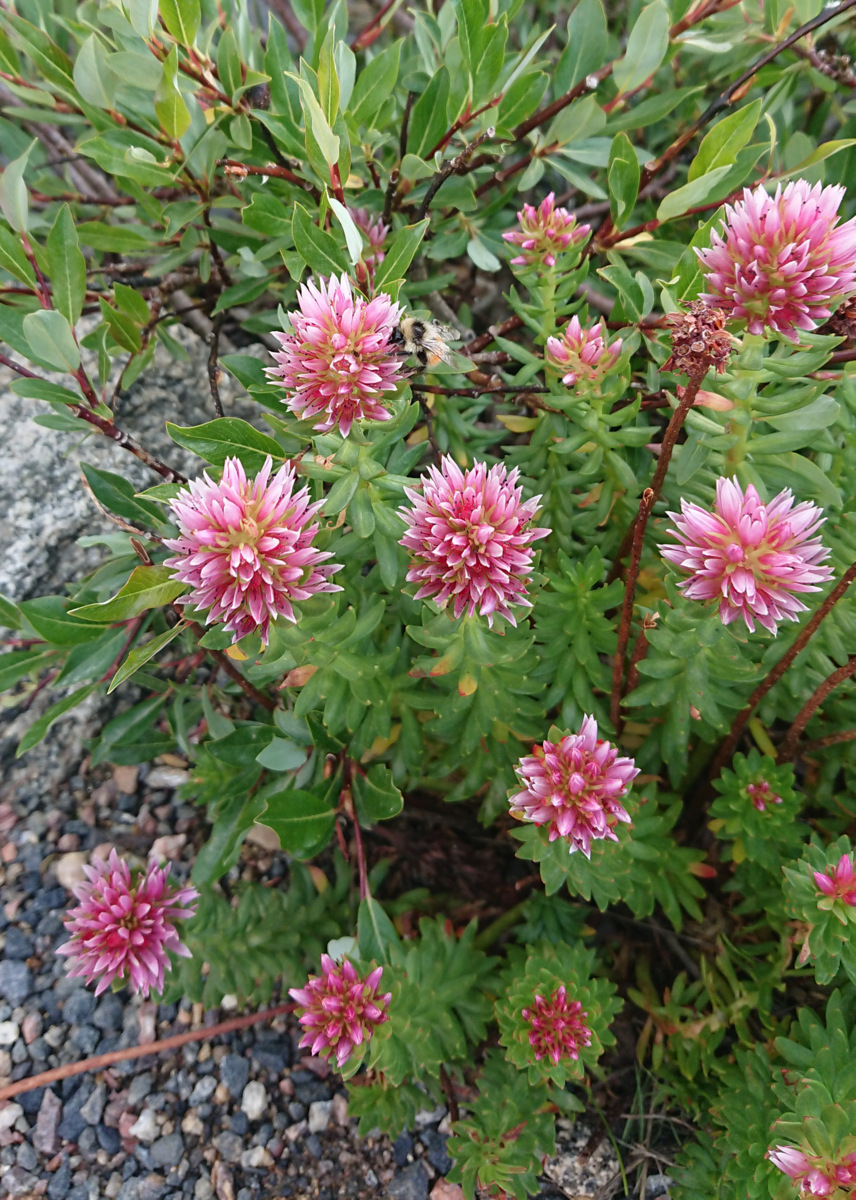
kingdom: Plantae
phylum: Tracheophyta
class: Magnoliopsida
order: Saxifragales
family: Crassulaceae
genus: Rhodiola
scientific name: Rhodiola rhodantha
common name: Red orpine
